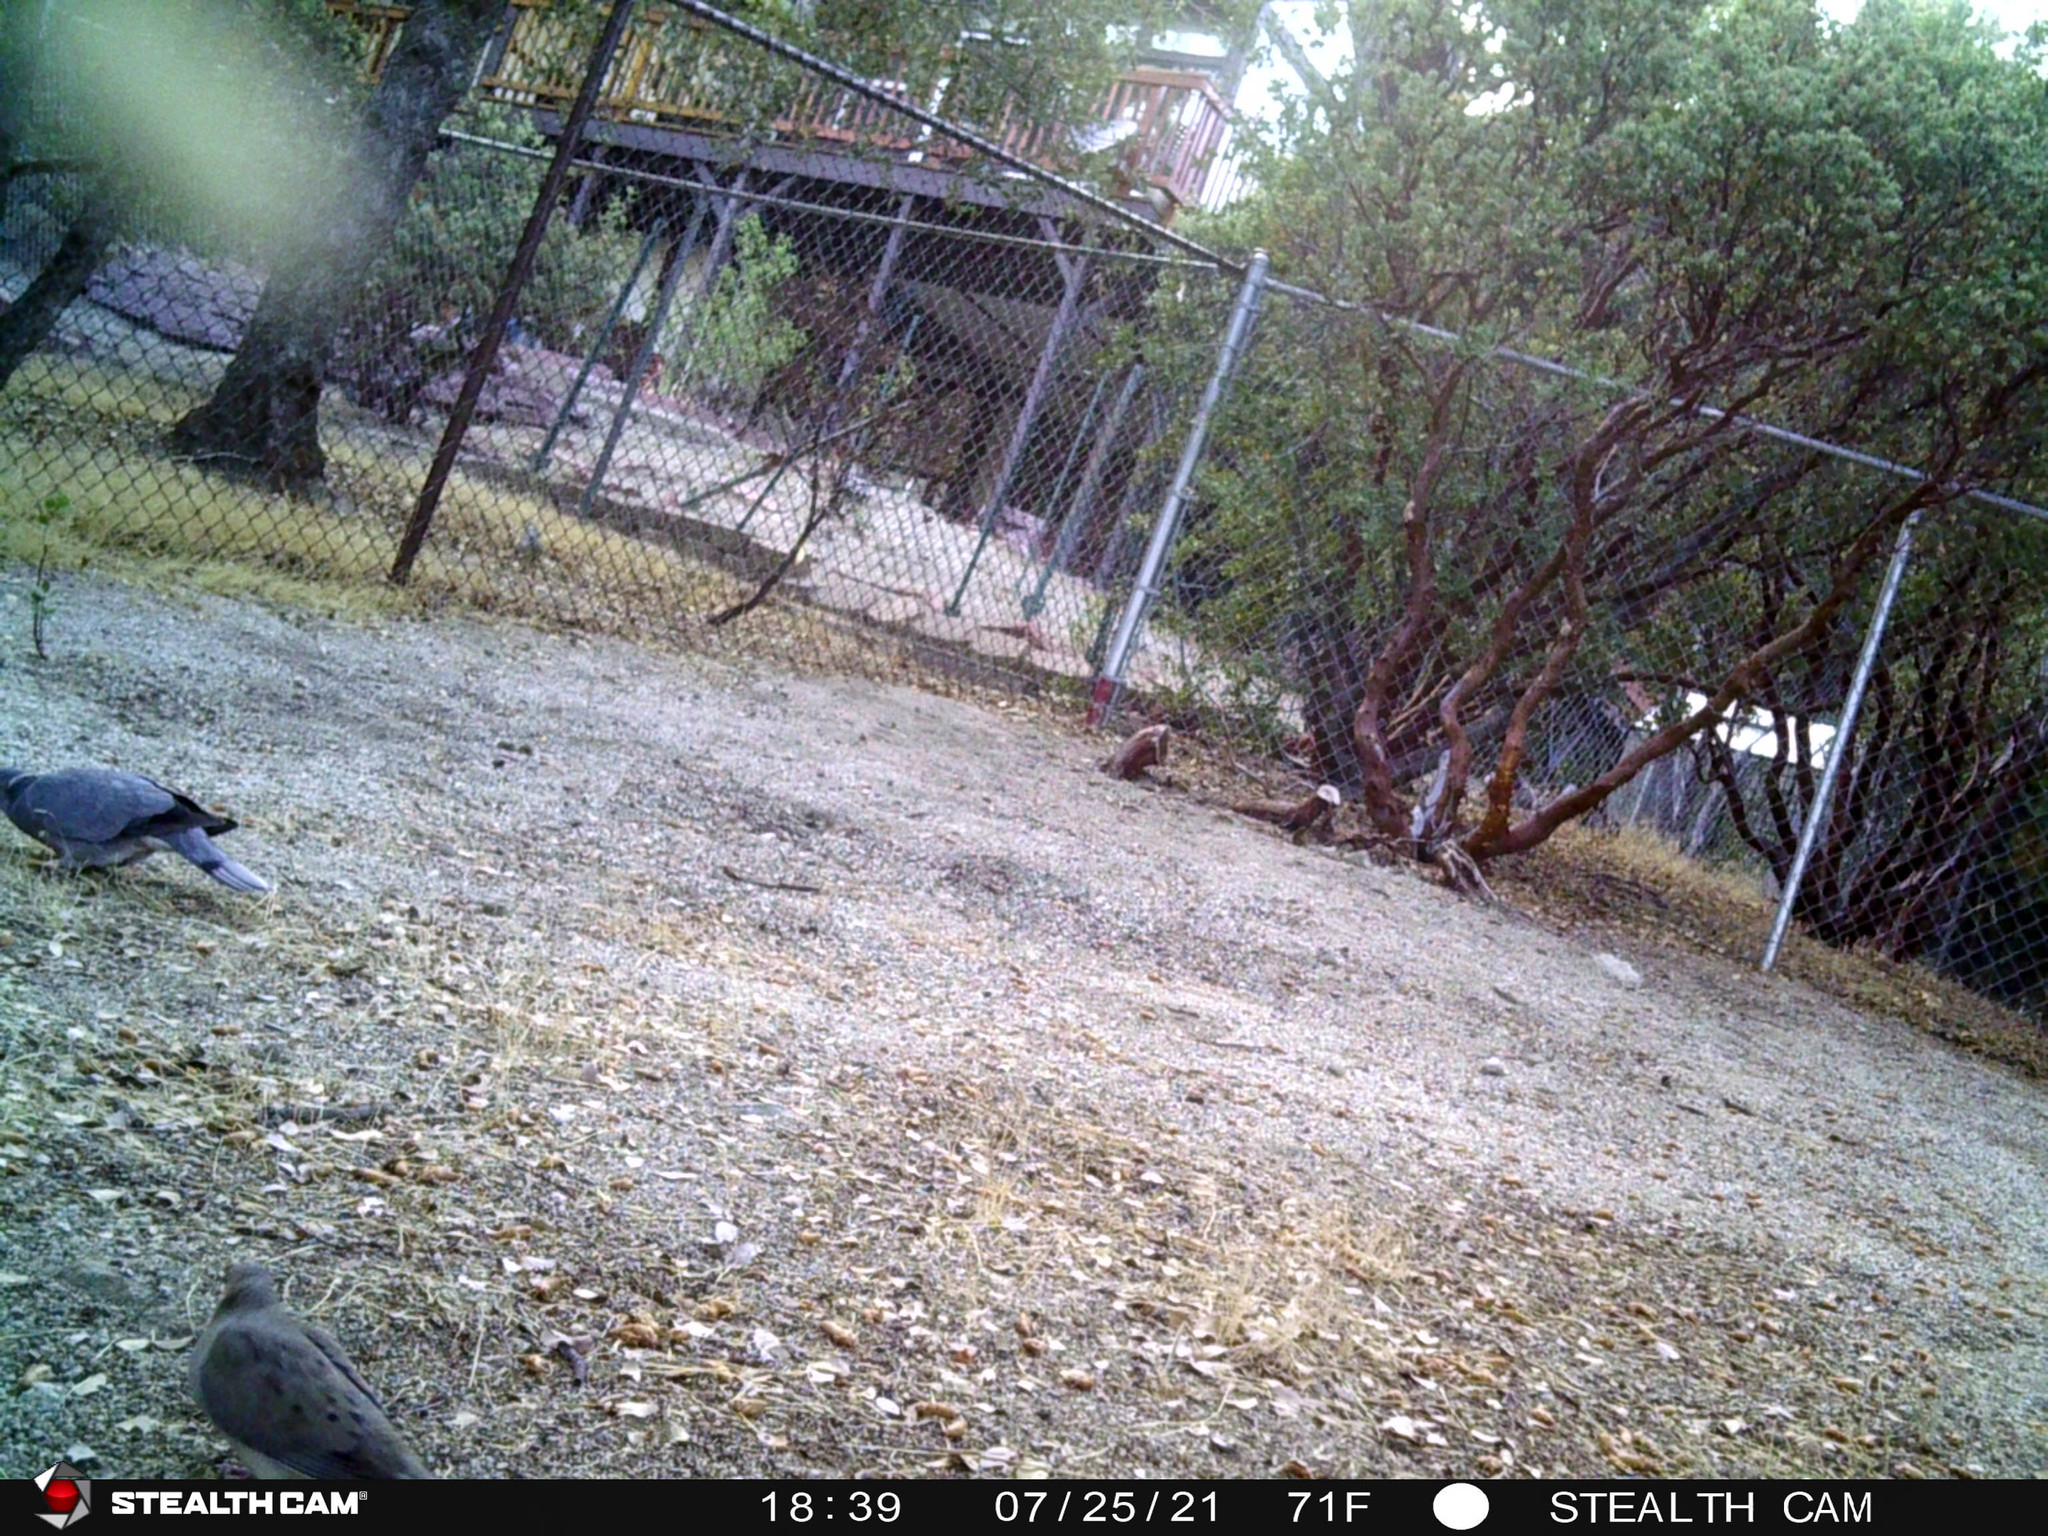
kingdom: Animalia
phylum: Chordata
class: Aves
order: Columbiformes
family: Columbidae
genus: Patagioenas
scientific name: Patagioenas fasciata
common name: Band-tailed pigeon
